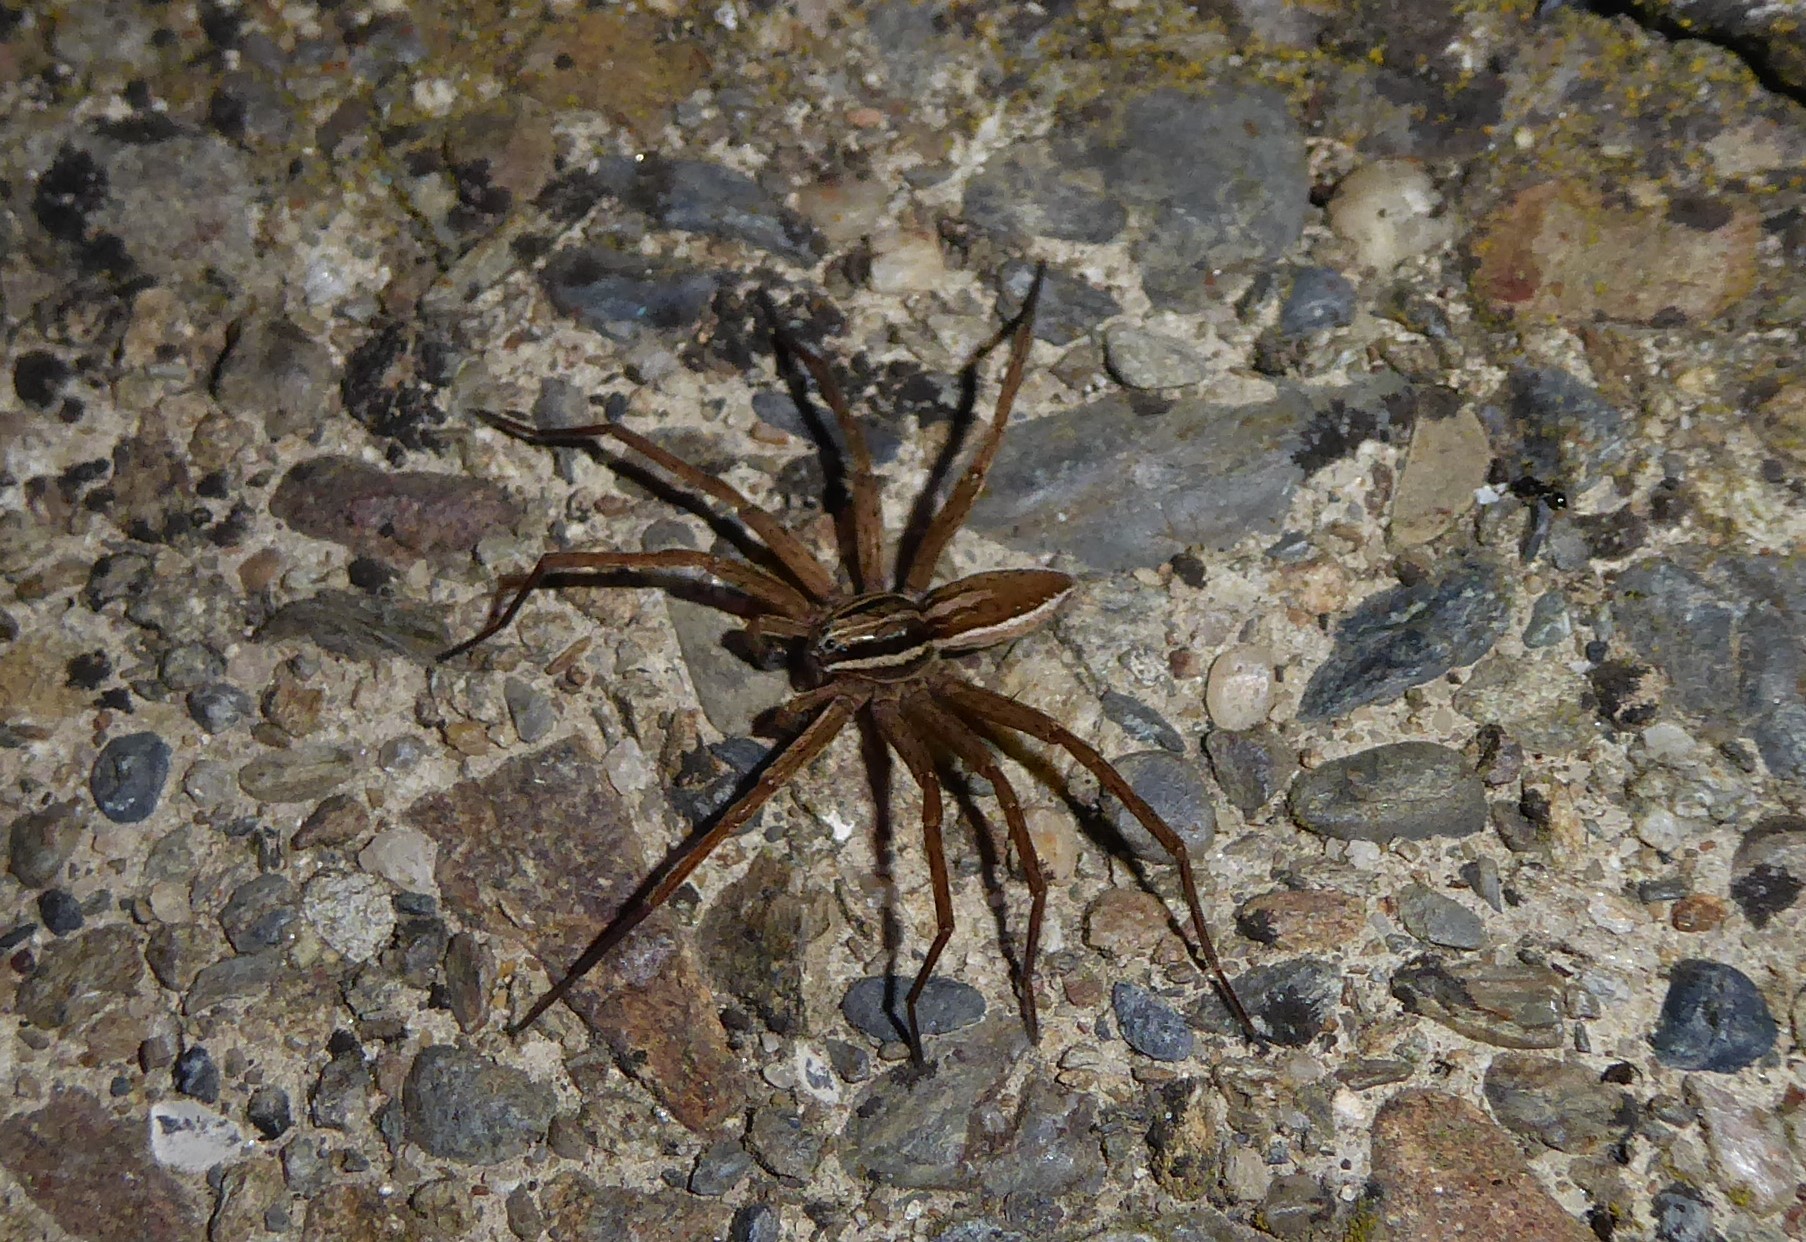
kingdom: Animalia
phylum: Arthropoda
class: Arachnida
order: Araneae
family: Pisauridae
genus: Dolomedes
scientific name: Dolomedes minor
